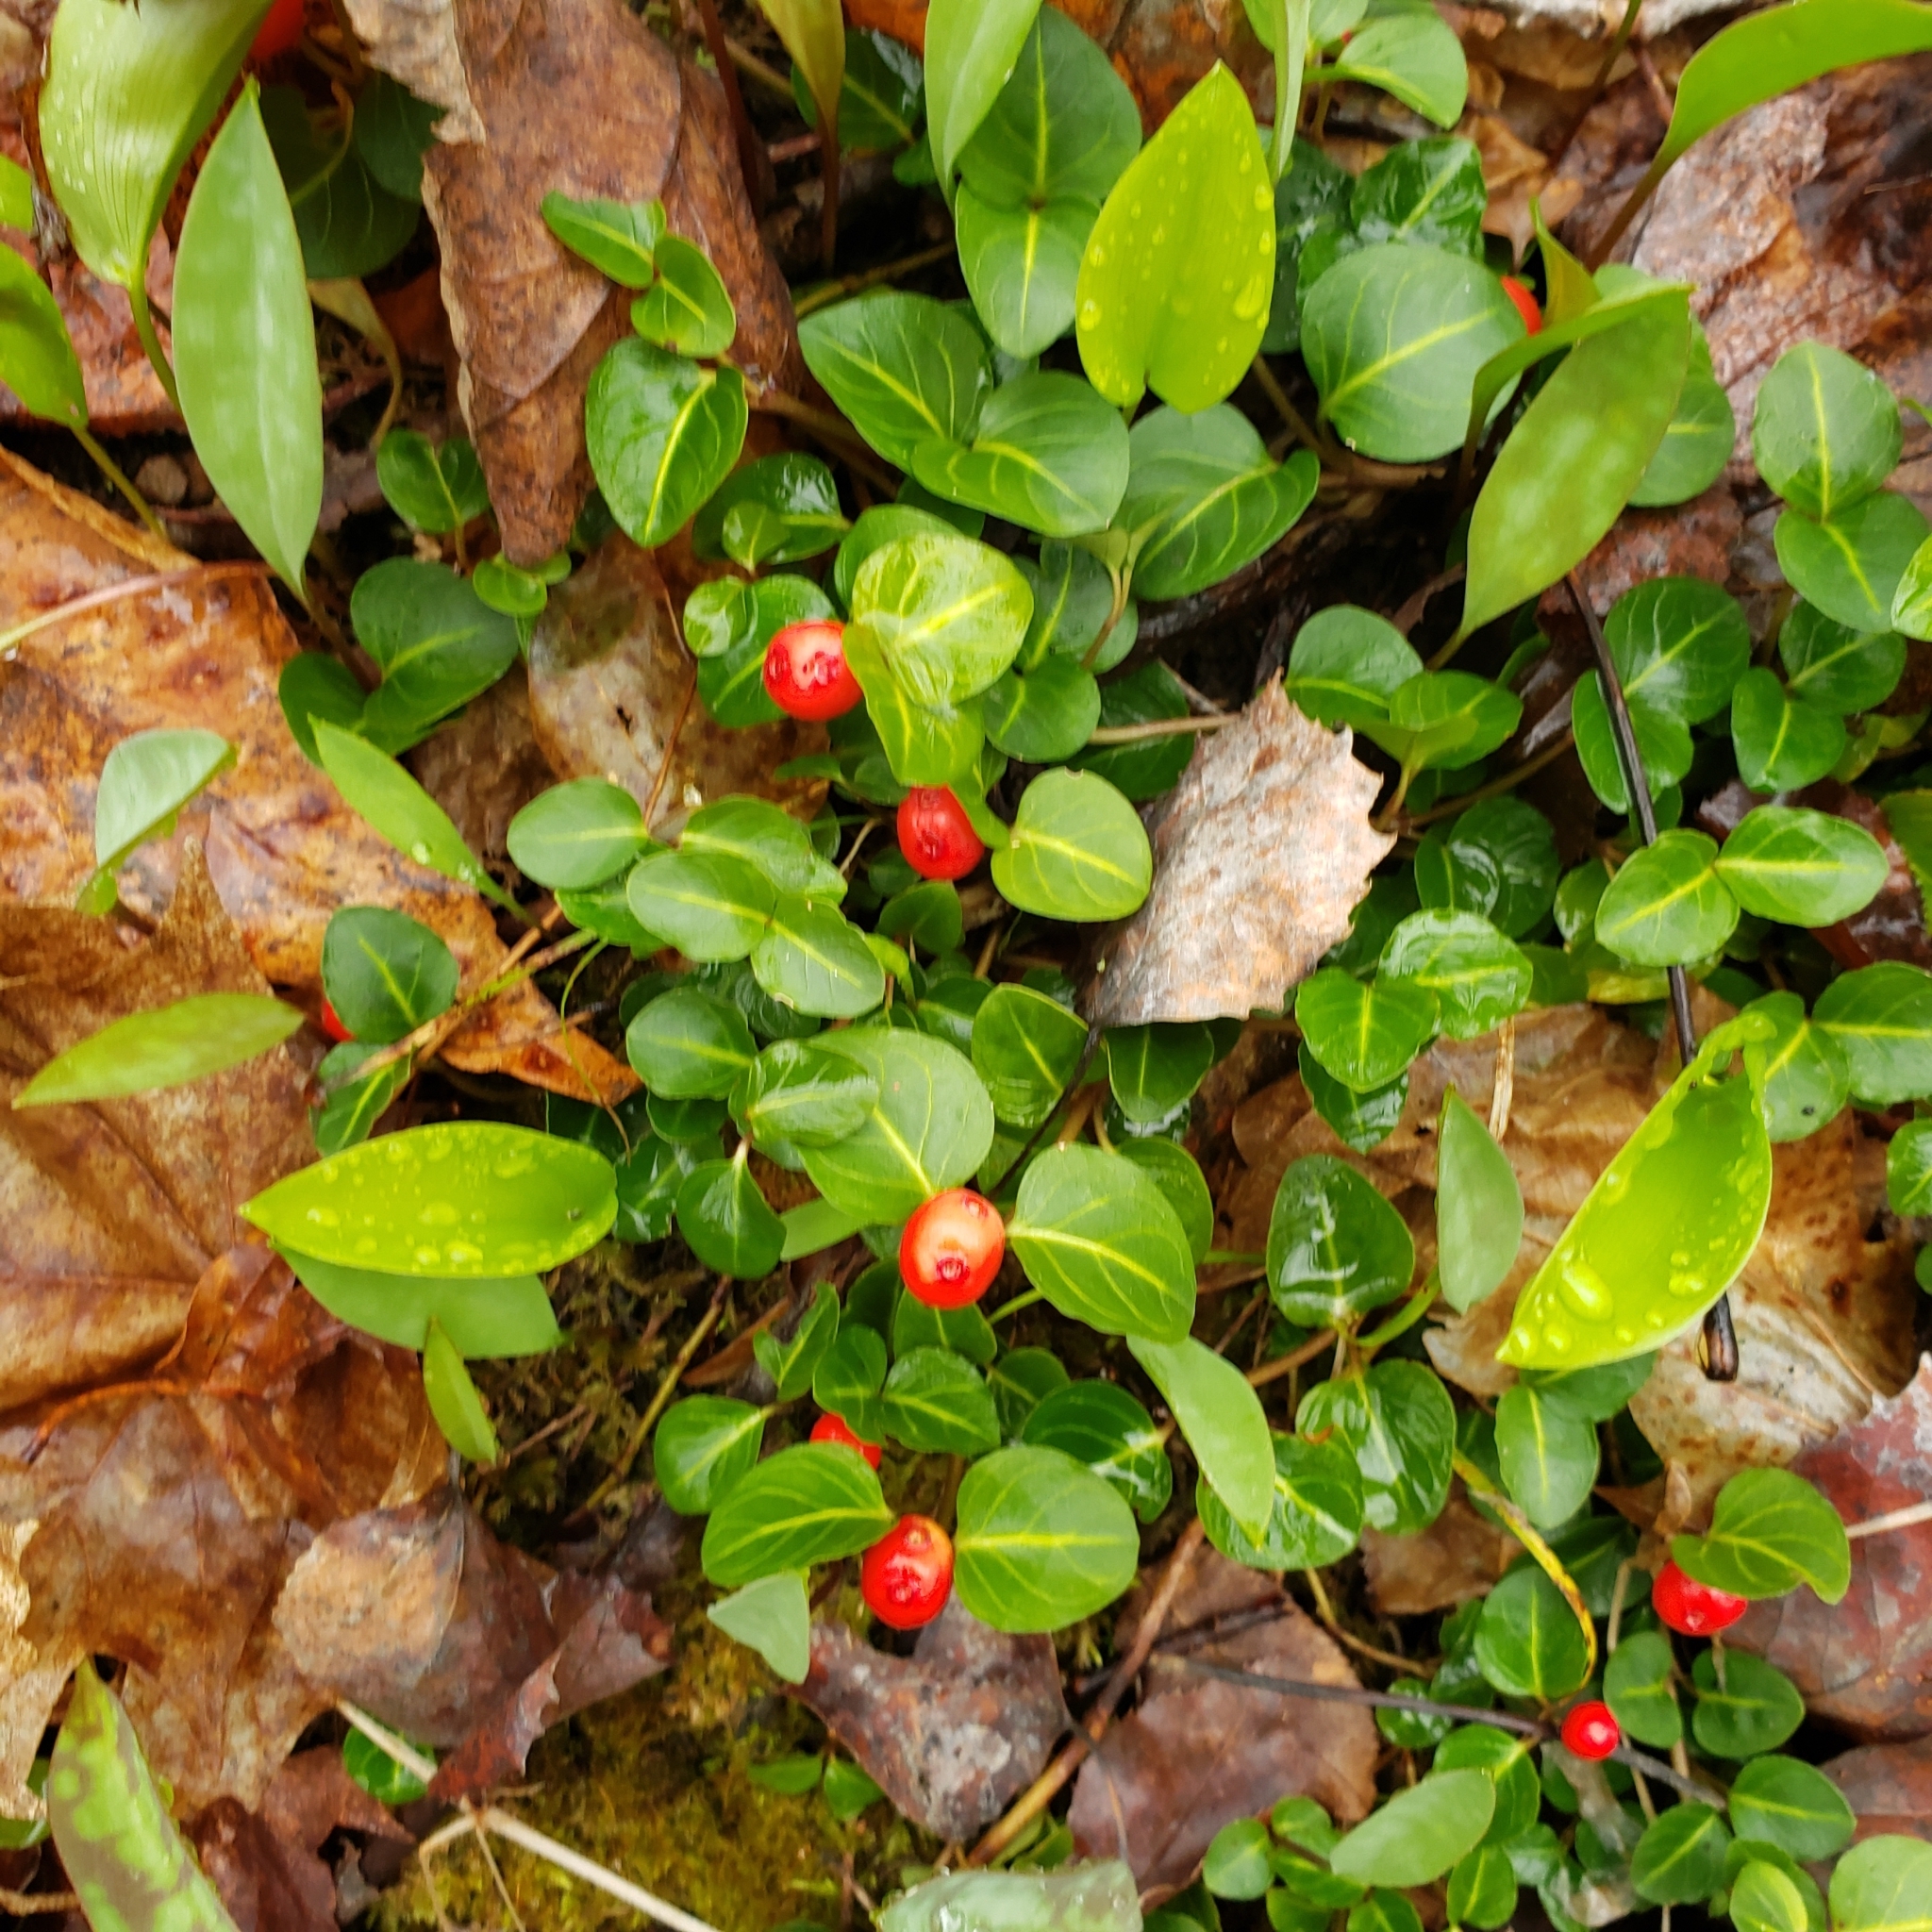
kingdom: Plantae
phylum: Tracheophyta
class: Magnoliopsida
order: Gentianales
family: Rubiaceae
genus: Mitchella
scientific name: Mitchella repens
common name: Partridge-berry
